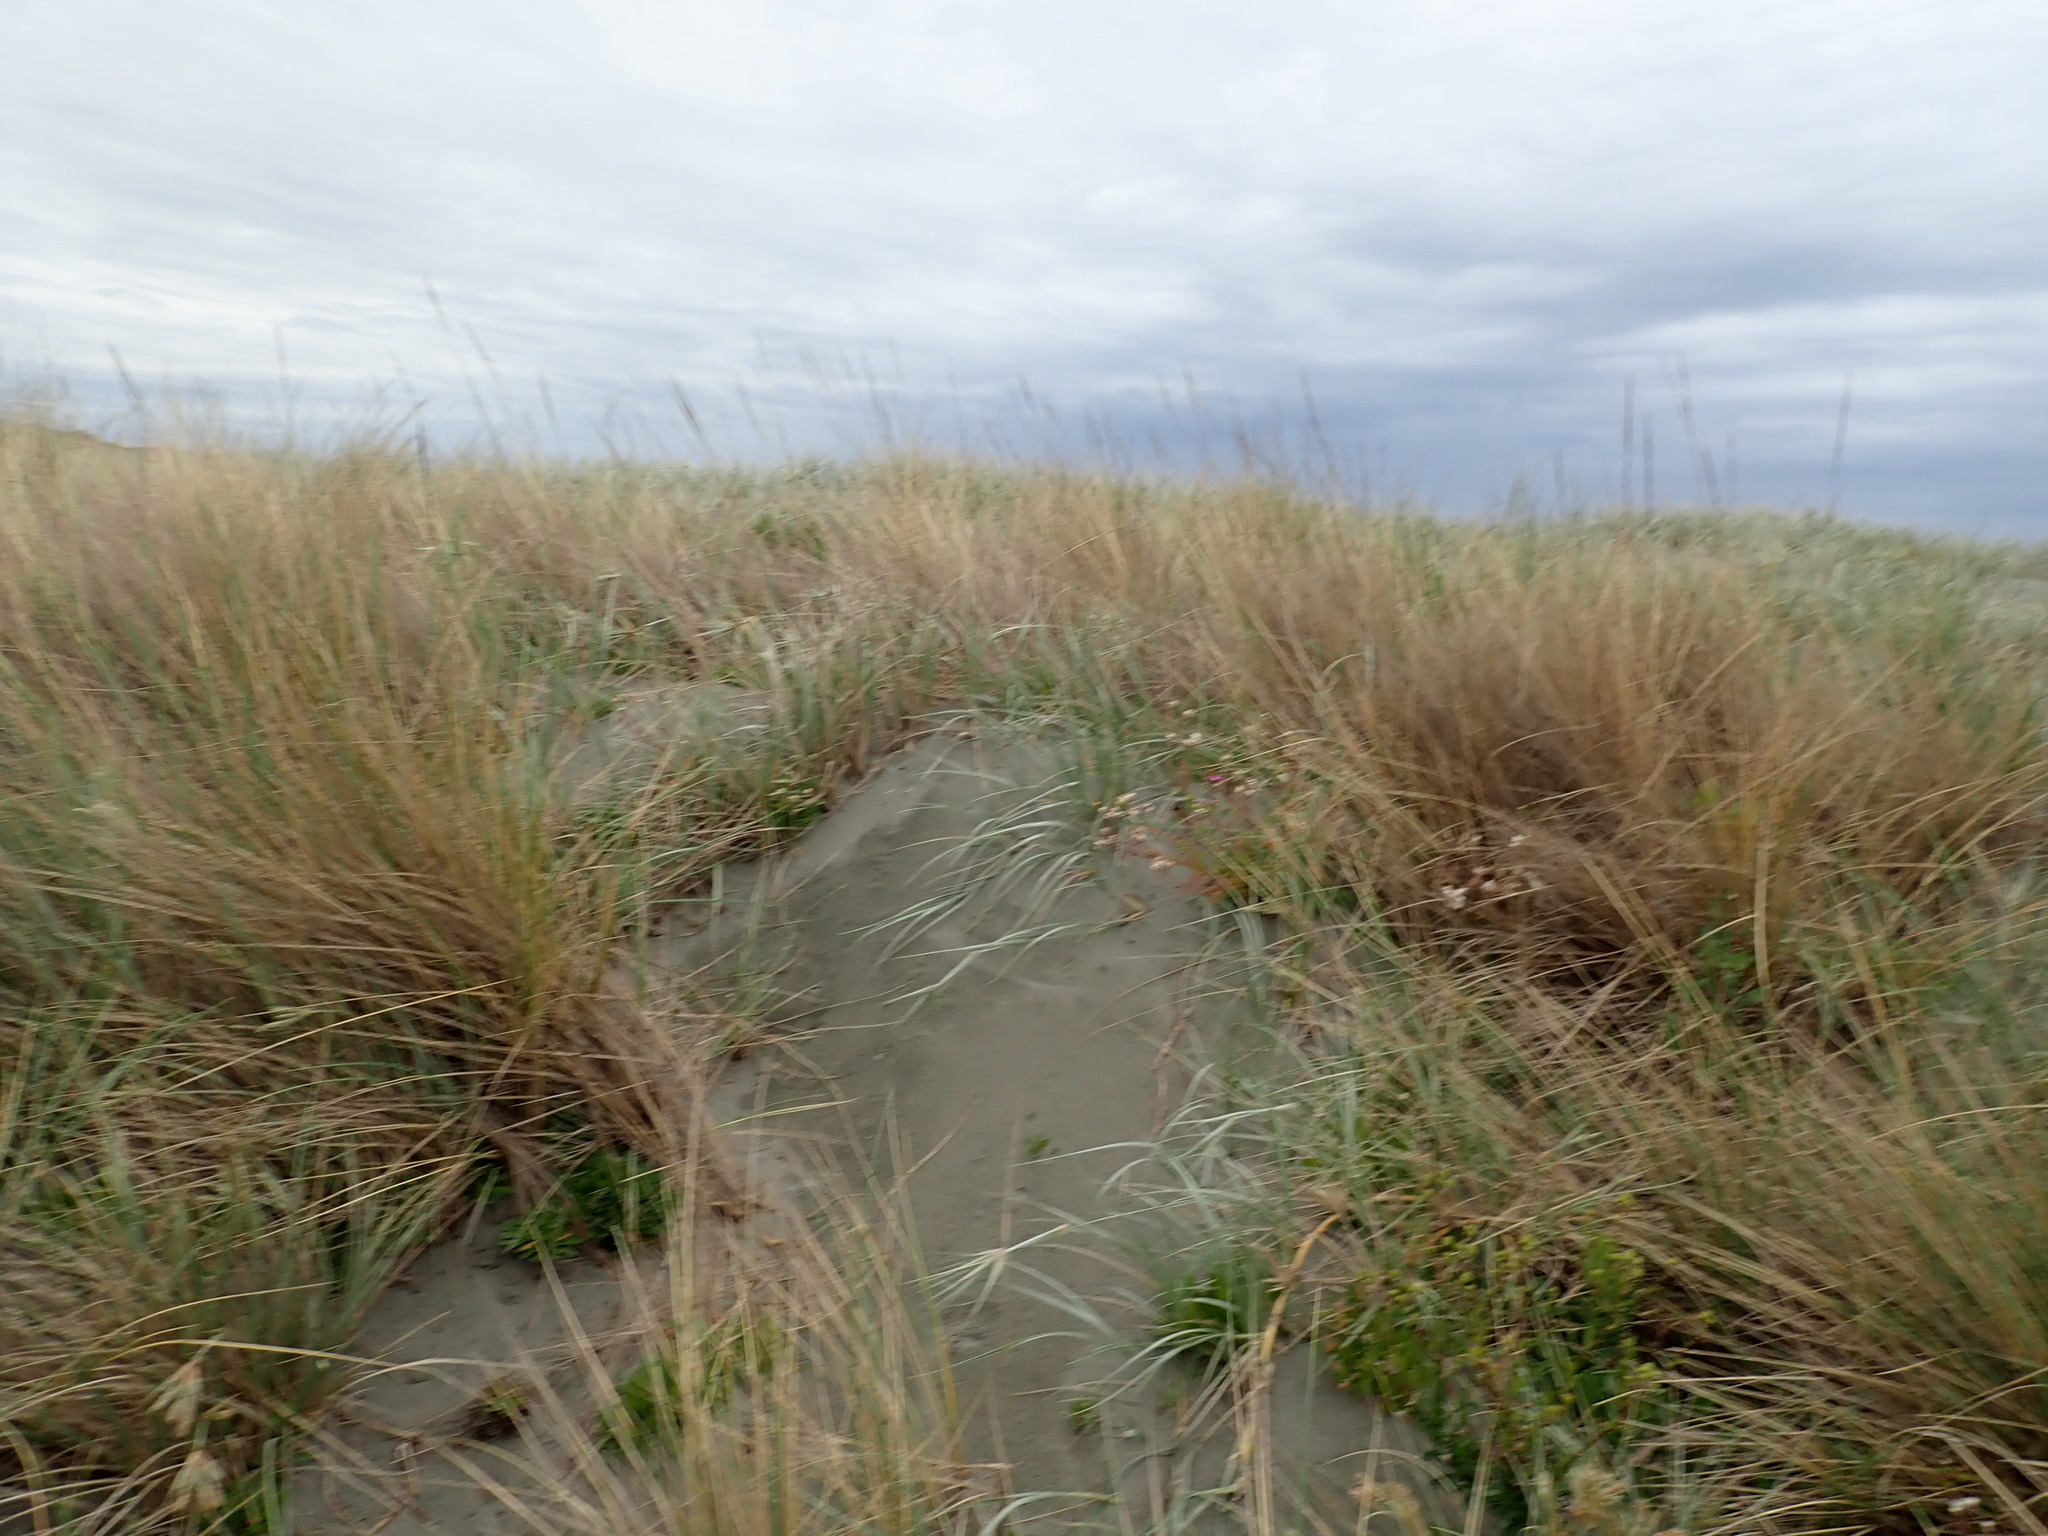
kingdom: Plantae
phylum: Tracheophyta
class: Liliopsida
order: Poales
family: Poaceae
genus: Calamagrostis
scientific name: Calamagrostis arenaria
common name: European beachgrass
